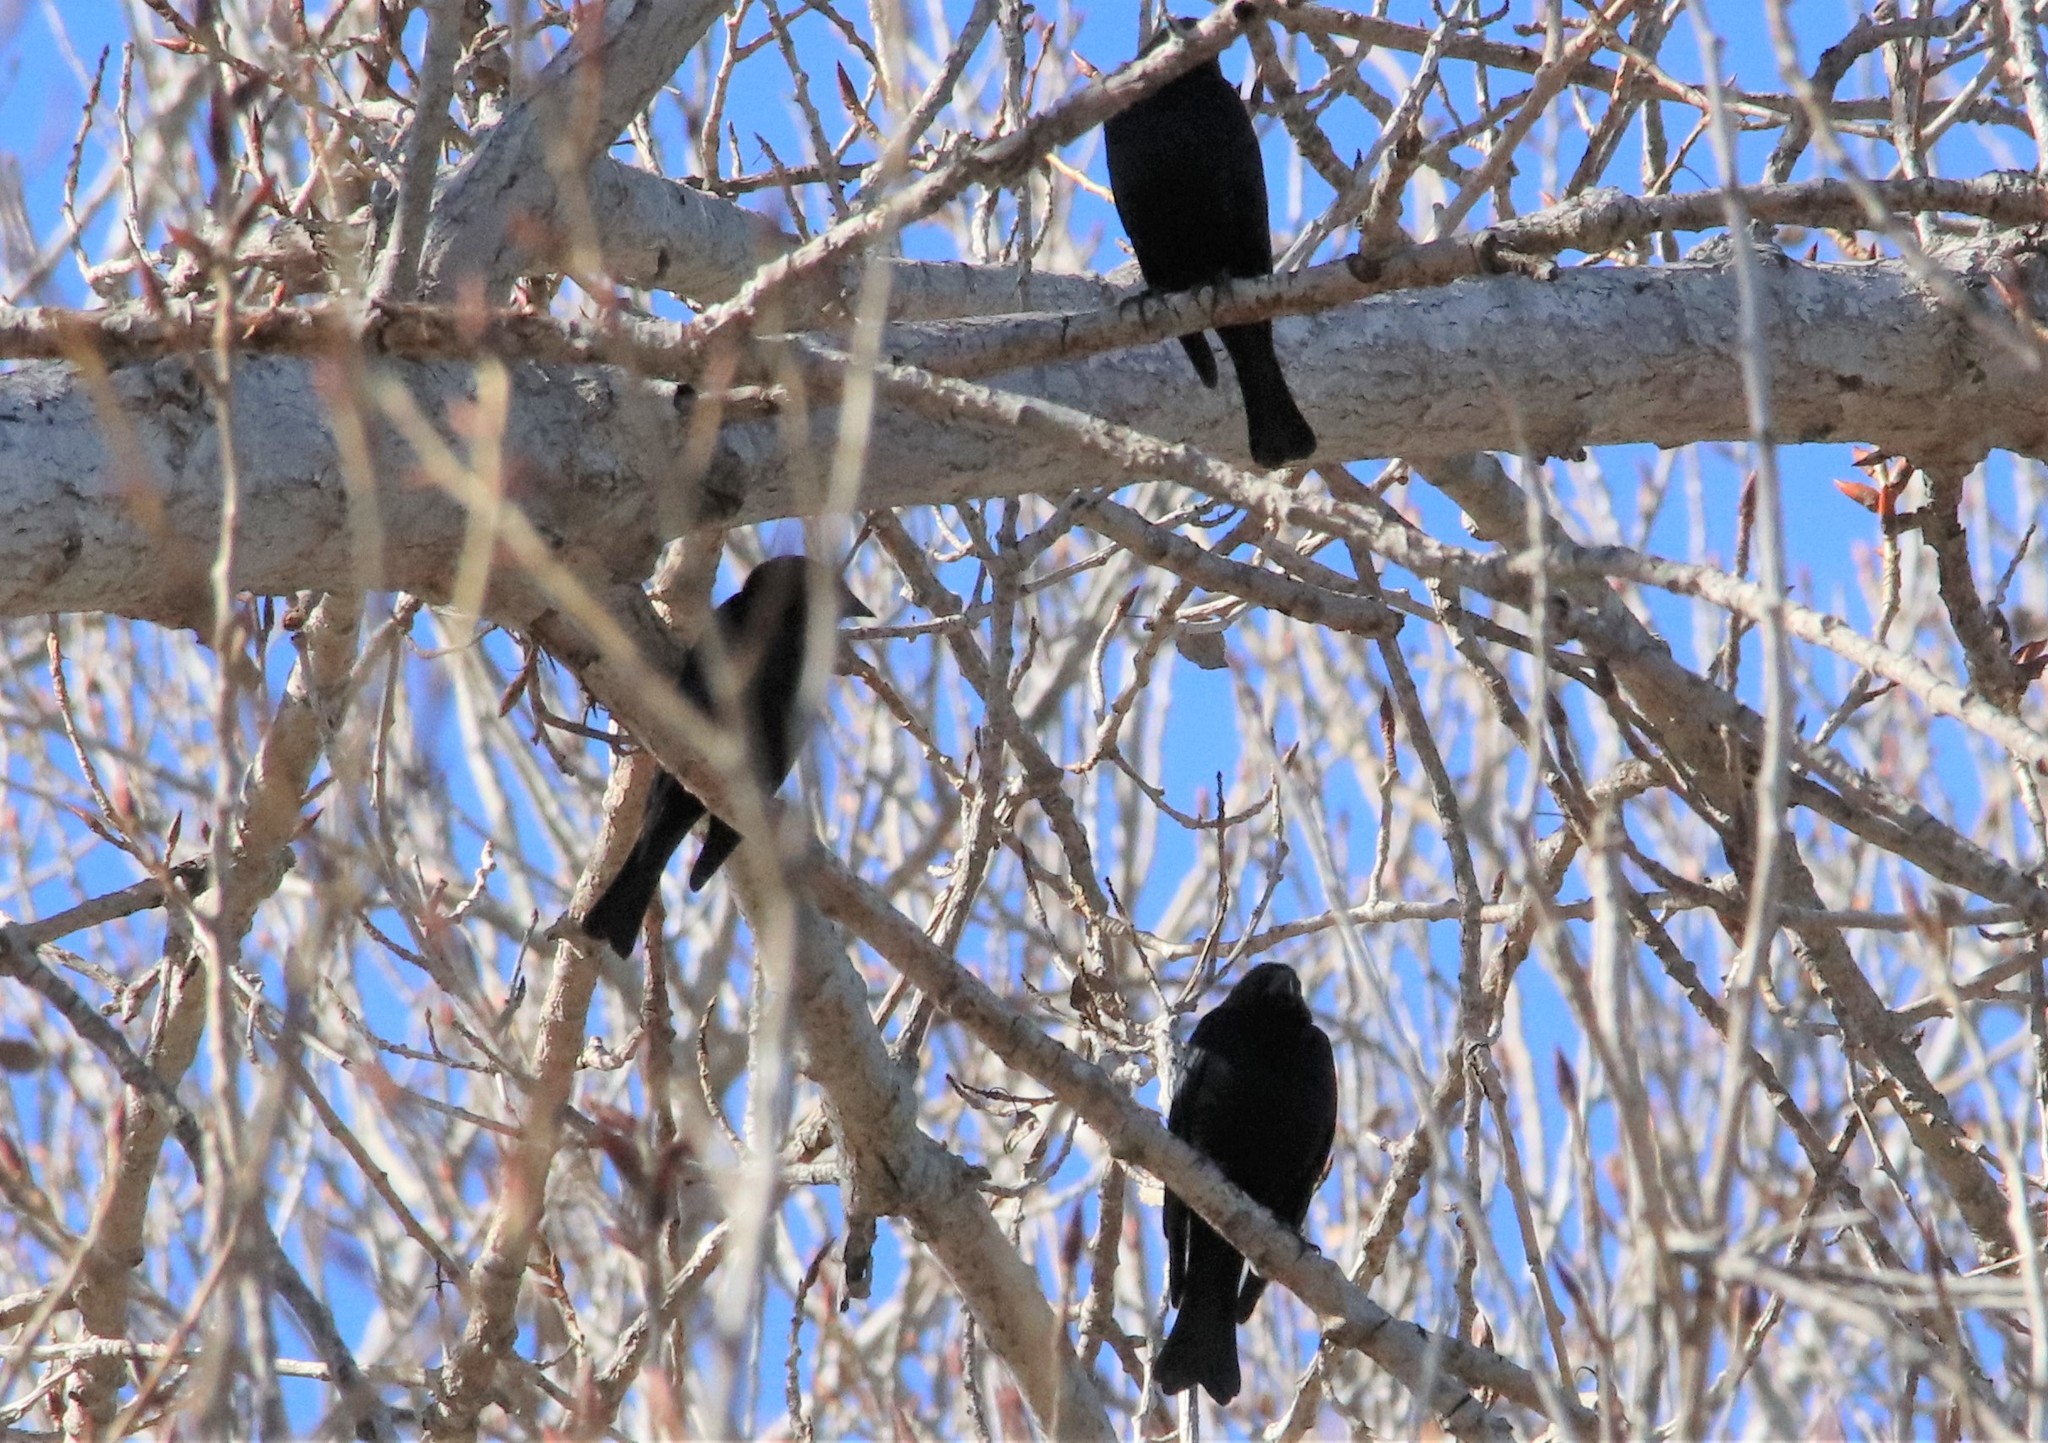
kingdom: Animalia
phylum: Chordata
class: Aves
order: Passeriformes
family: Icteridae
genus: Molothrus
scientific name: Molothrus ater
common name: Brown-headed cowbird
